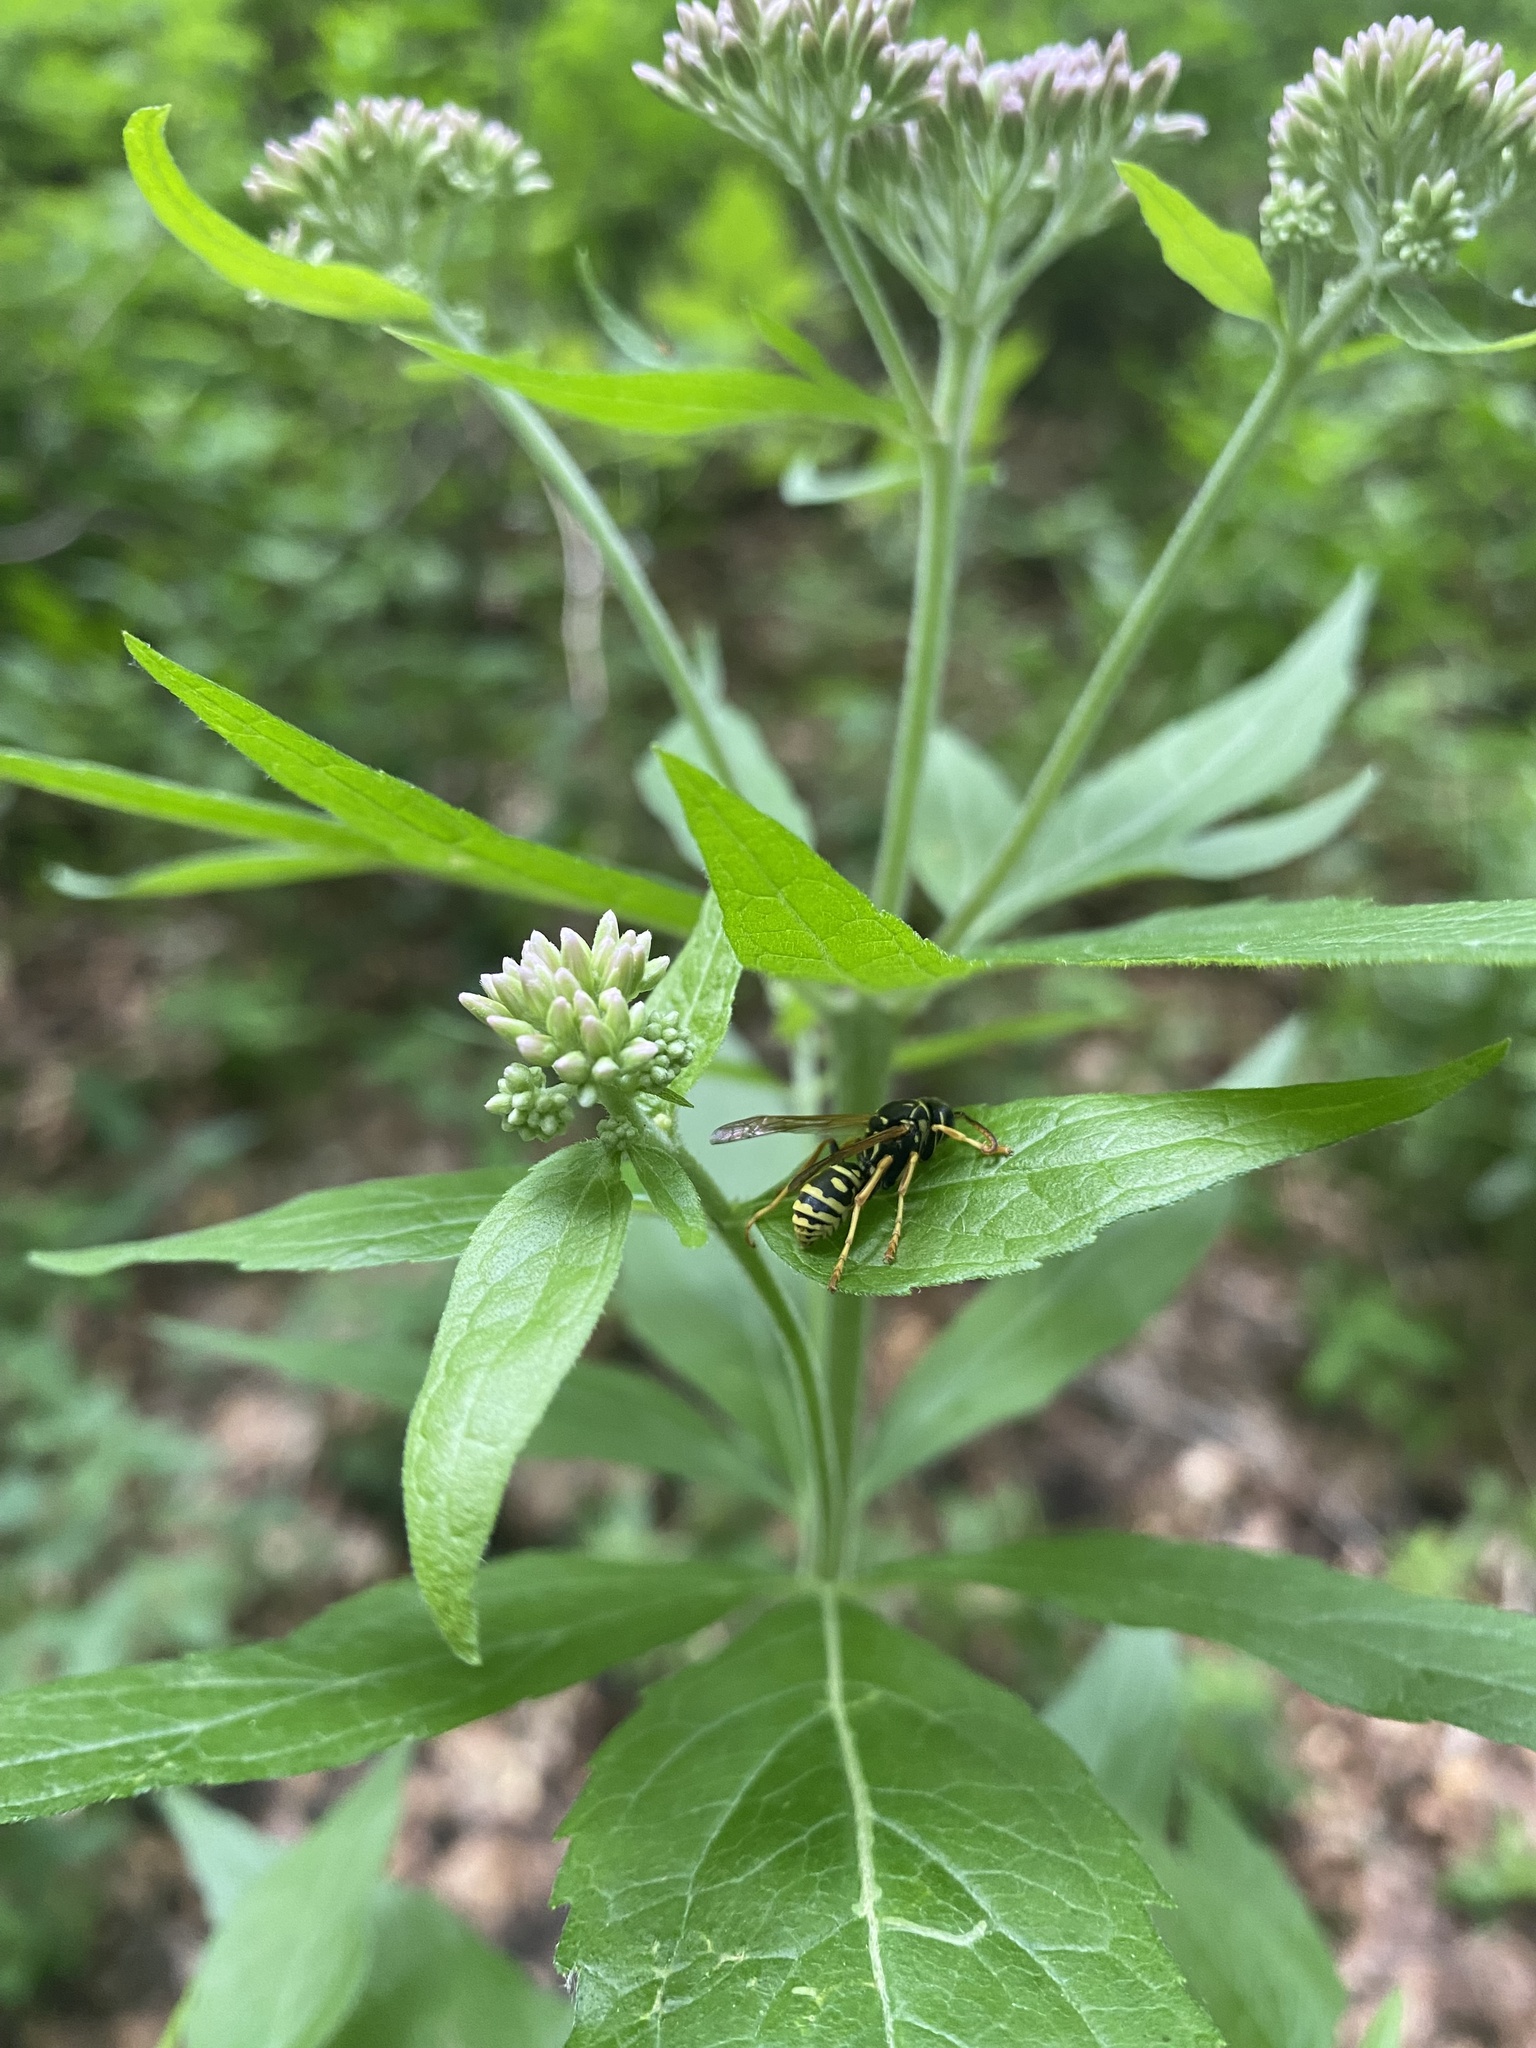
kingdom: Plantae
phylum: Tracheophyta
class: Magnoliopsida
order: Asterales
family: Asteraceae
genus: Eupatorium
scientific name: Eupatorium cannabinum
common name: Hemp-agrimony
